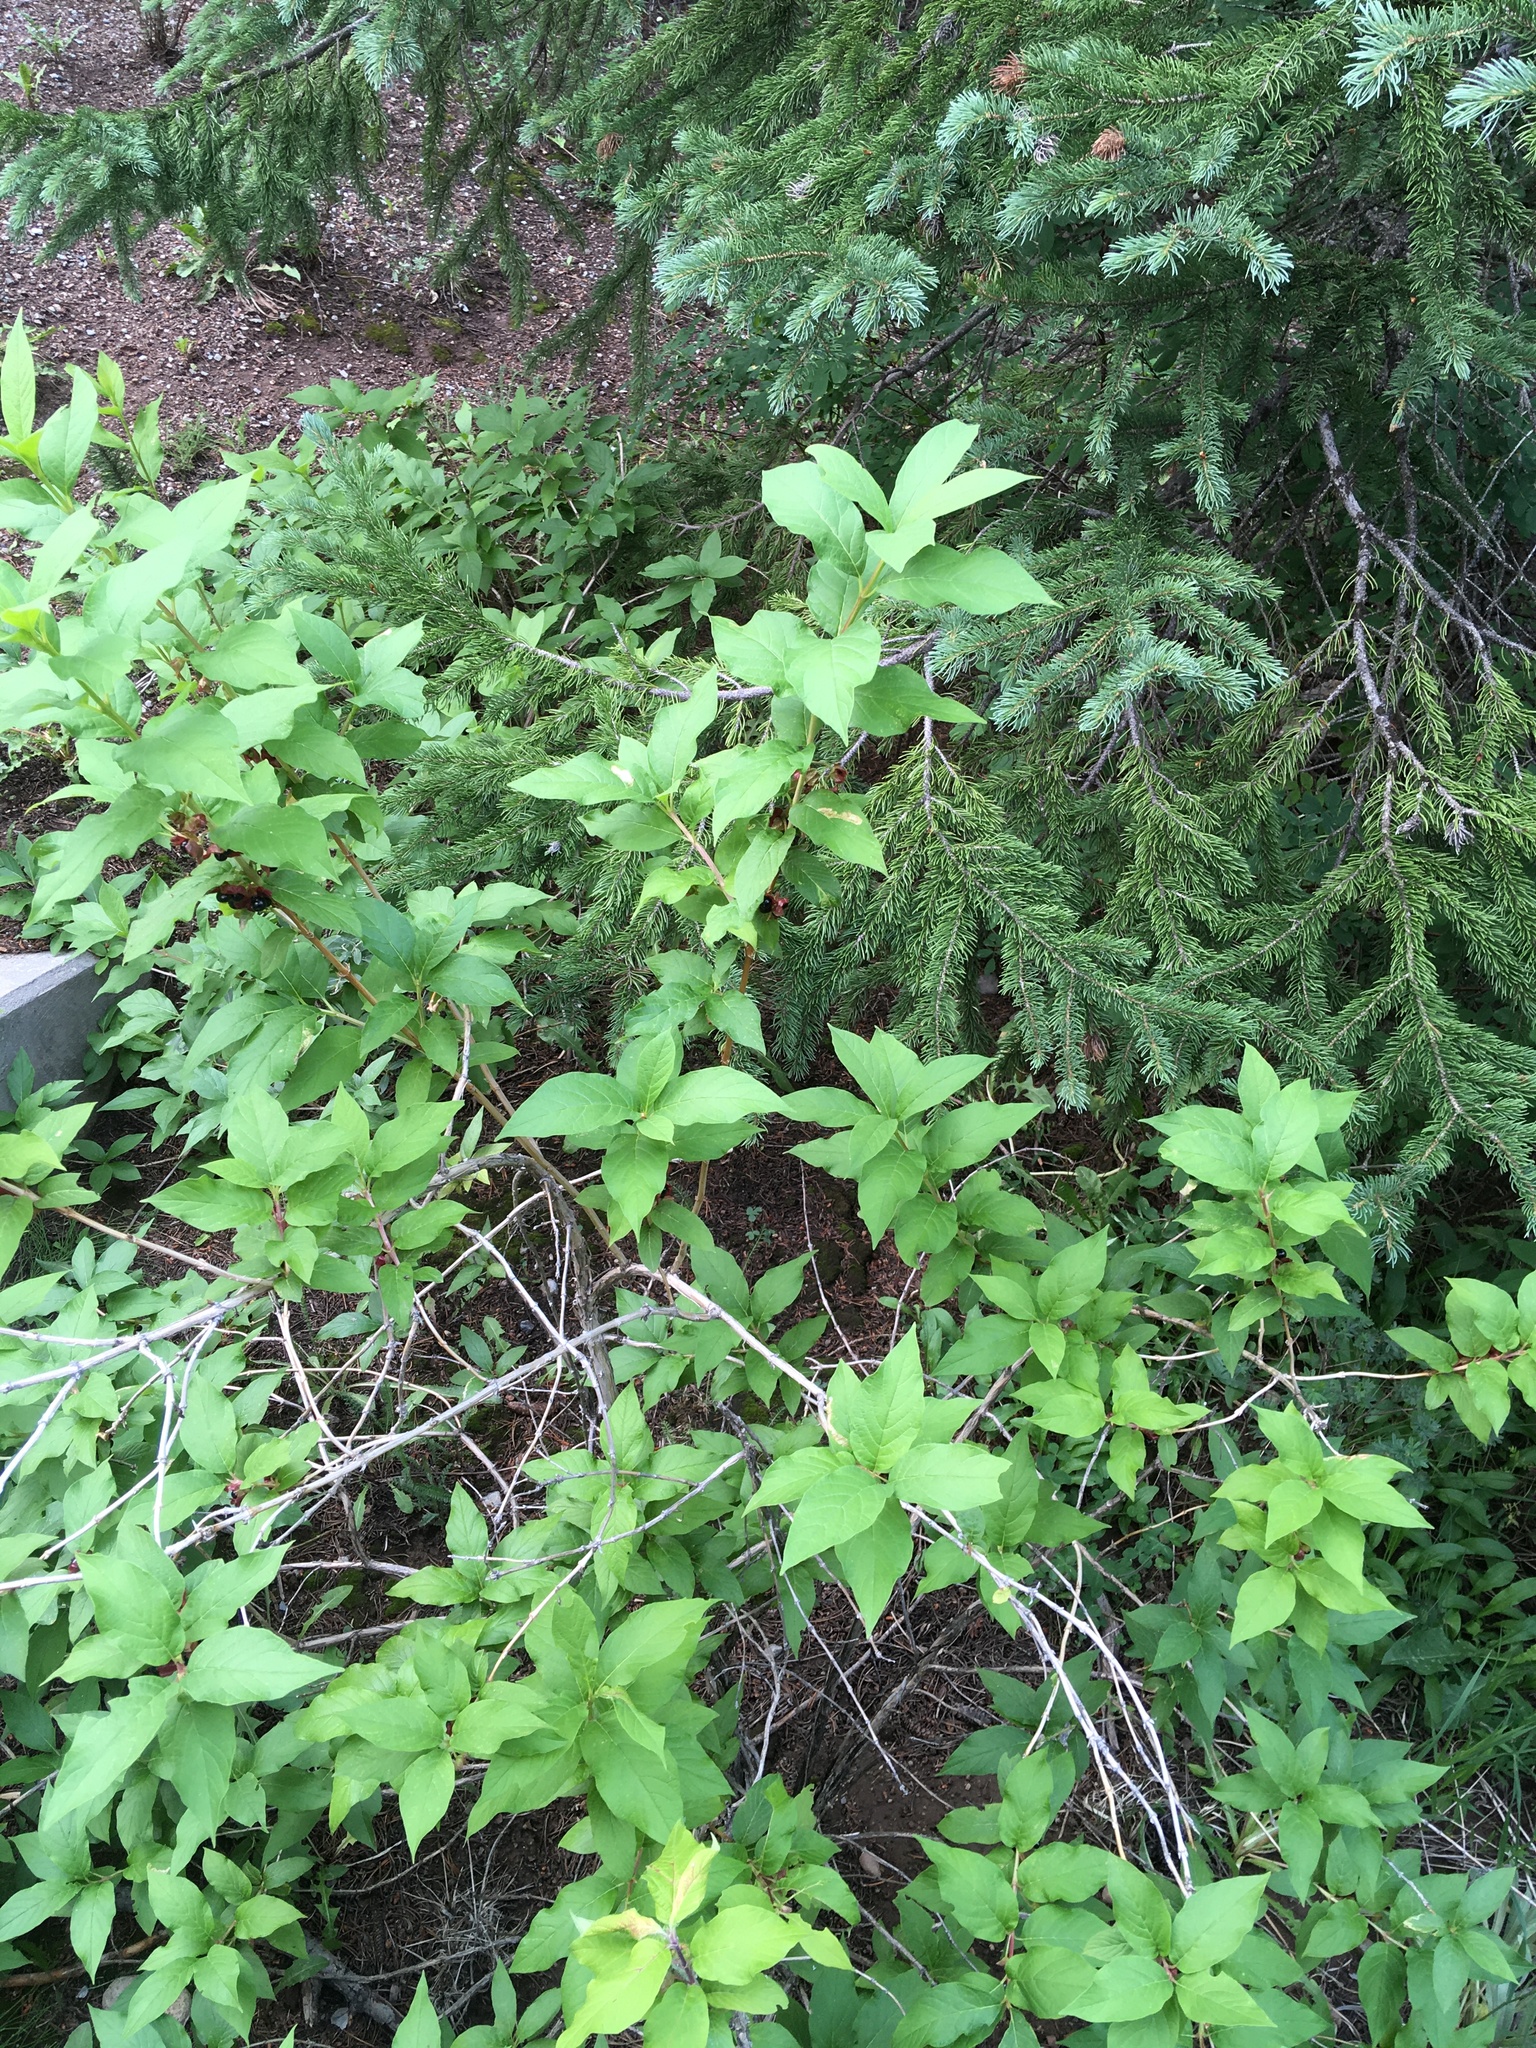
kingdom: Plantae
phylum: Tracheophyta
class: Magnoliopsida
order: Dipsacales
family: Caprifoliaceae
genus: Lonicera
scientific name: Lonicera involucrata
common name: Californian honeysuckle
